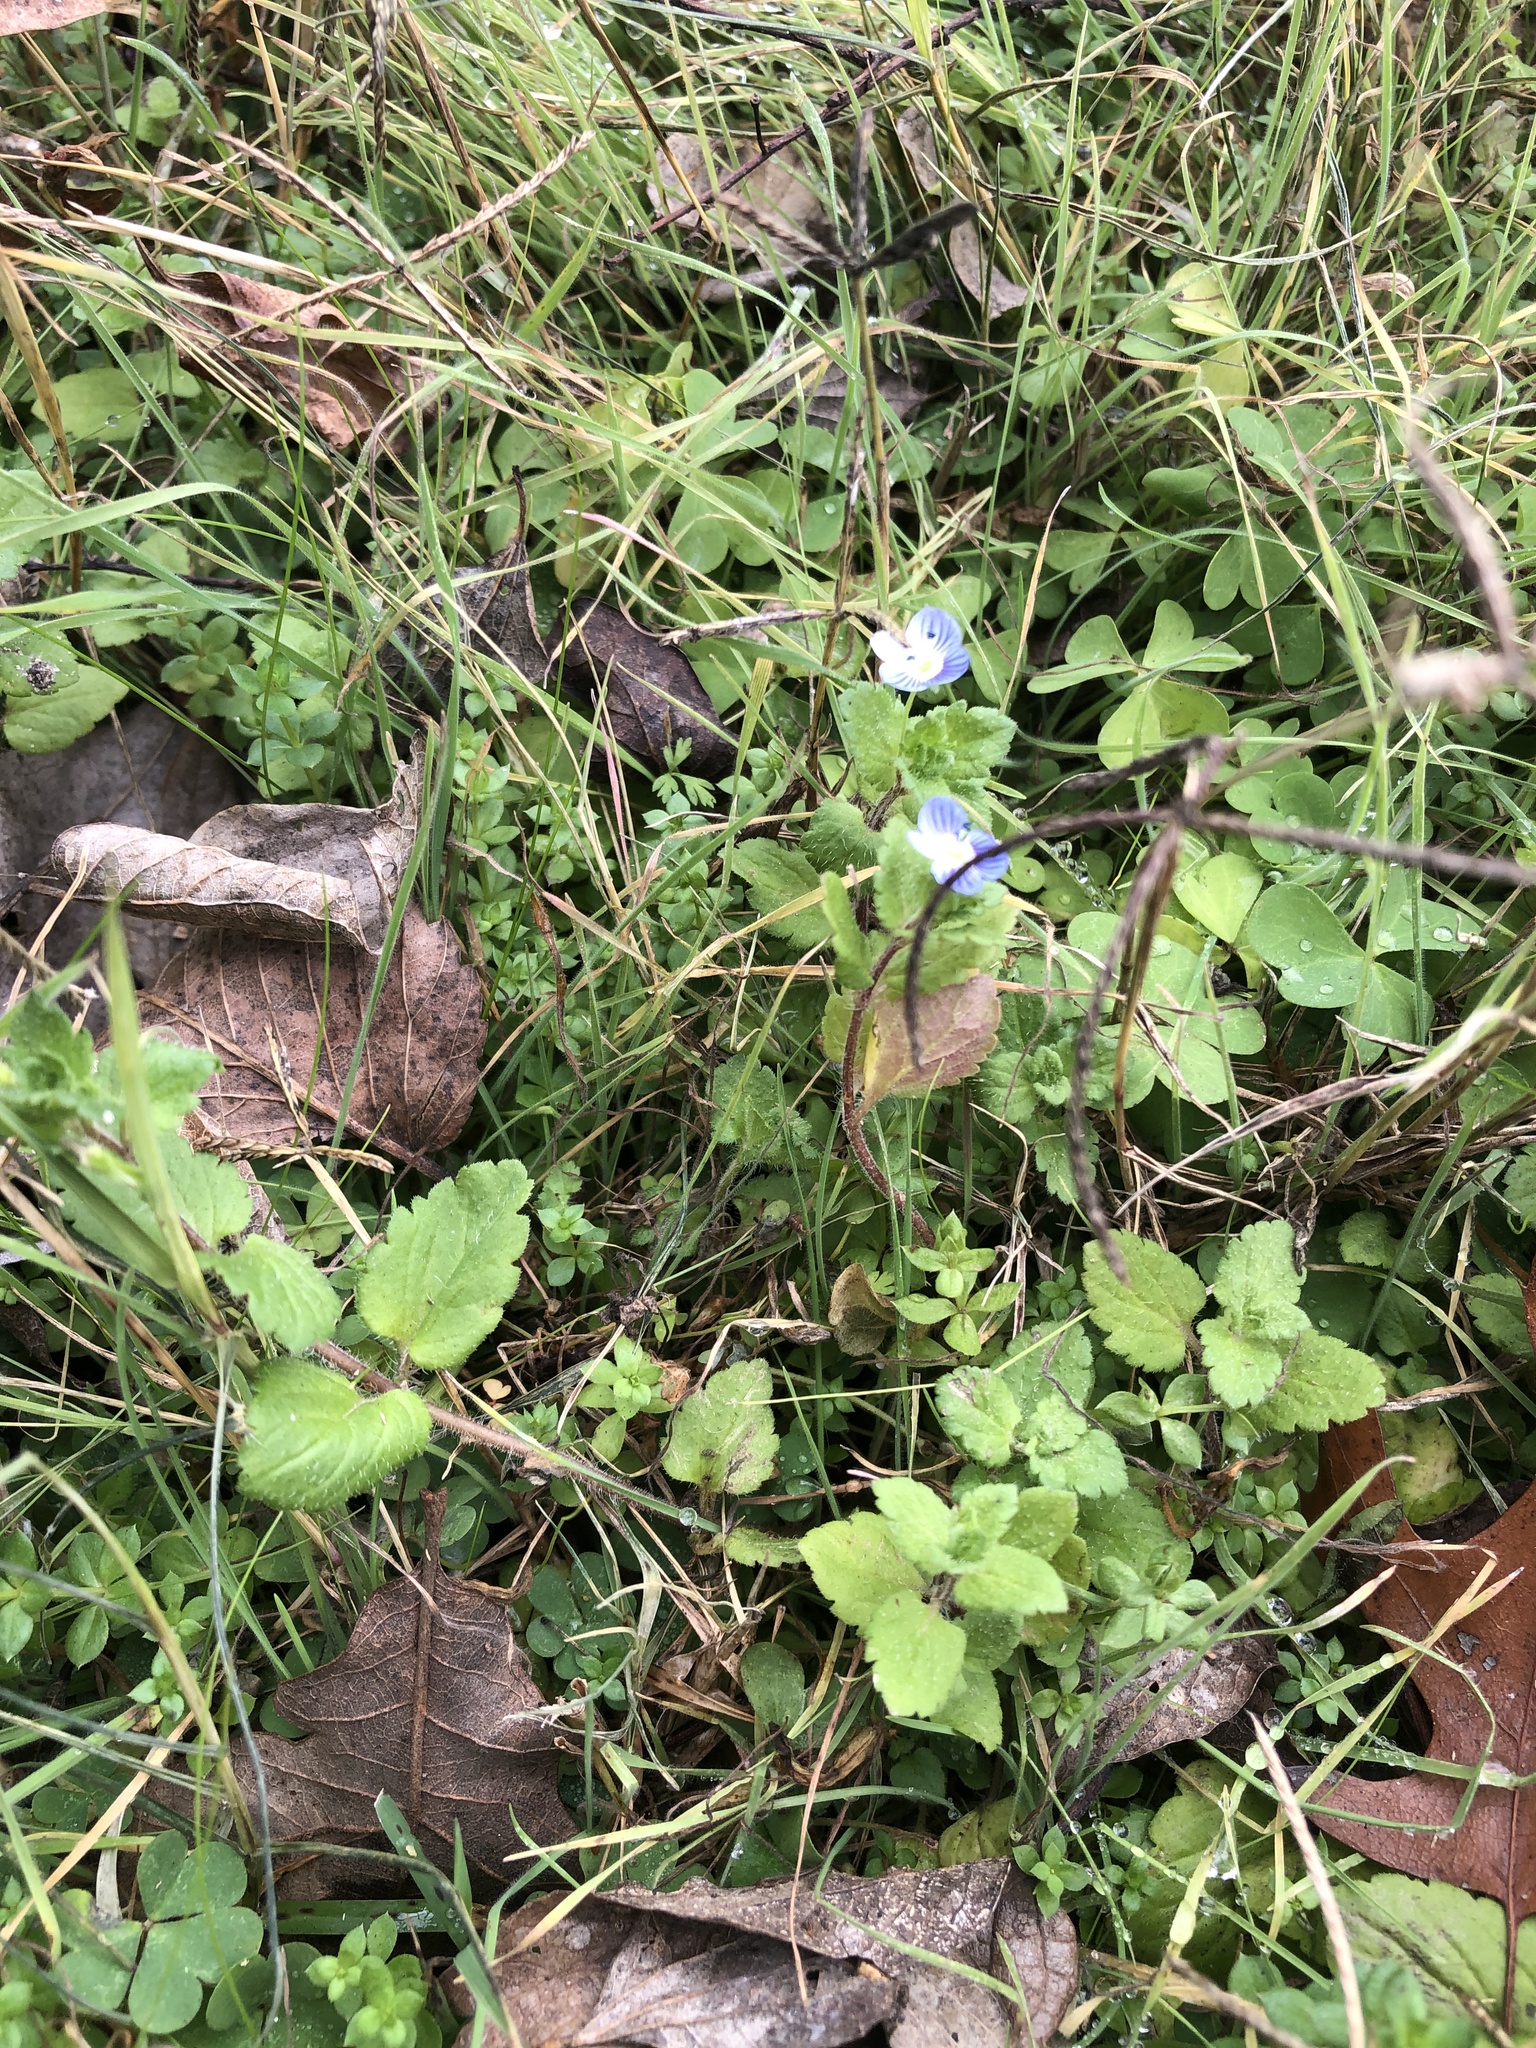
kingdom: Plantae
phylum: Tracheophyta
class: Magnoliopsida
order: Lamiales
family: Plantaginaceae
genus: Veronica
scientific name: Veronica persica
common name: Common field-speedwell
